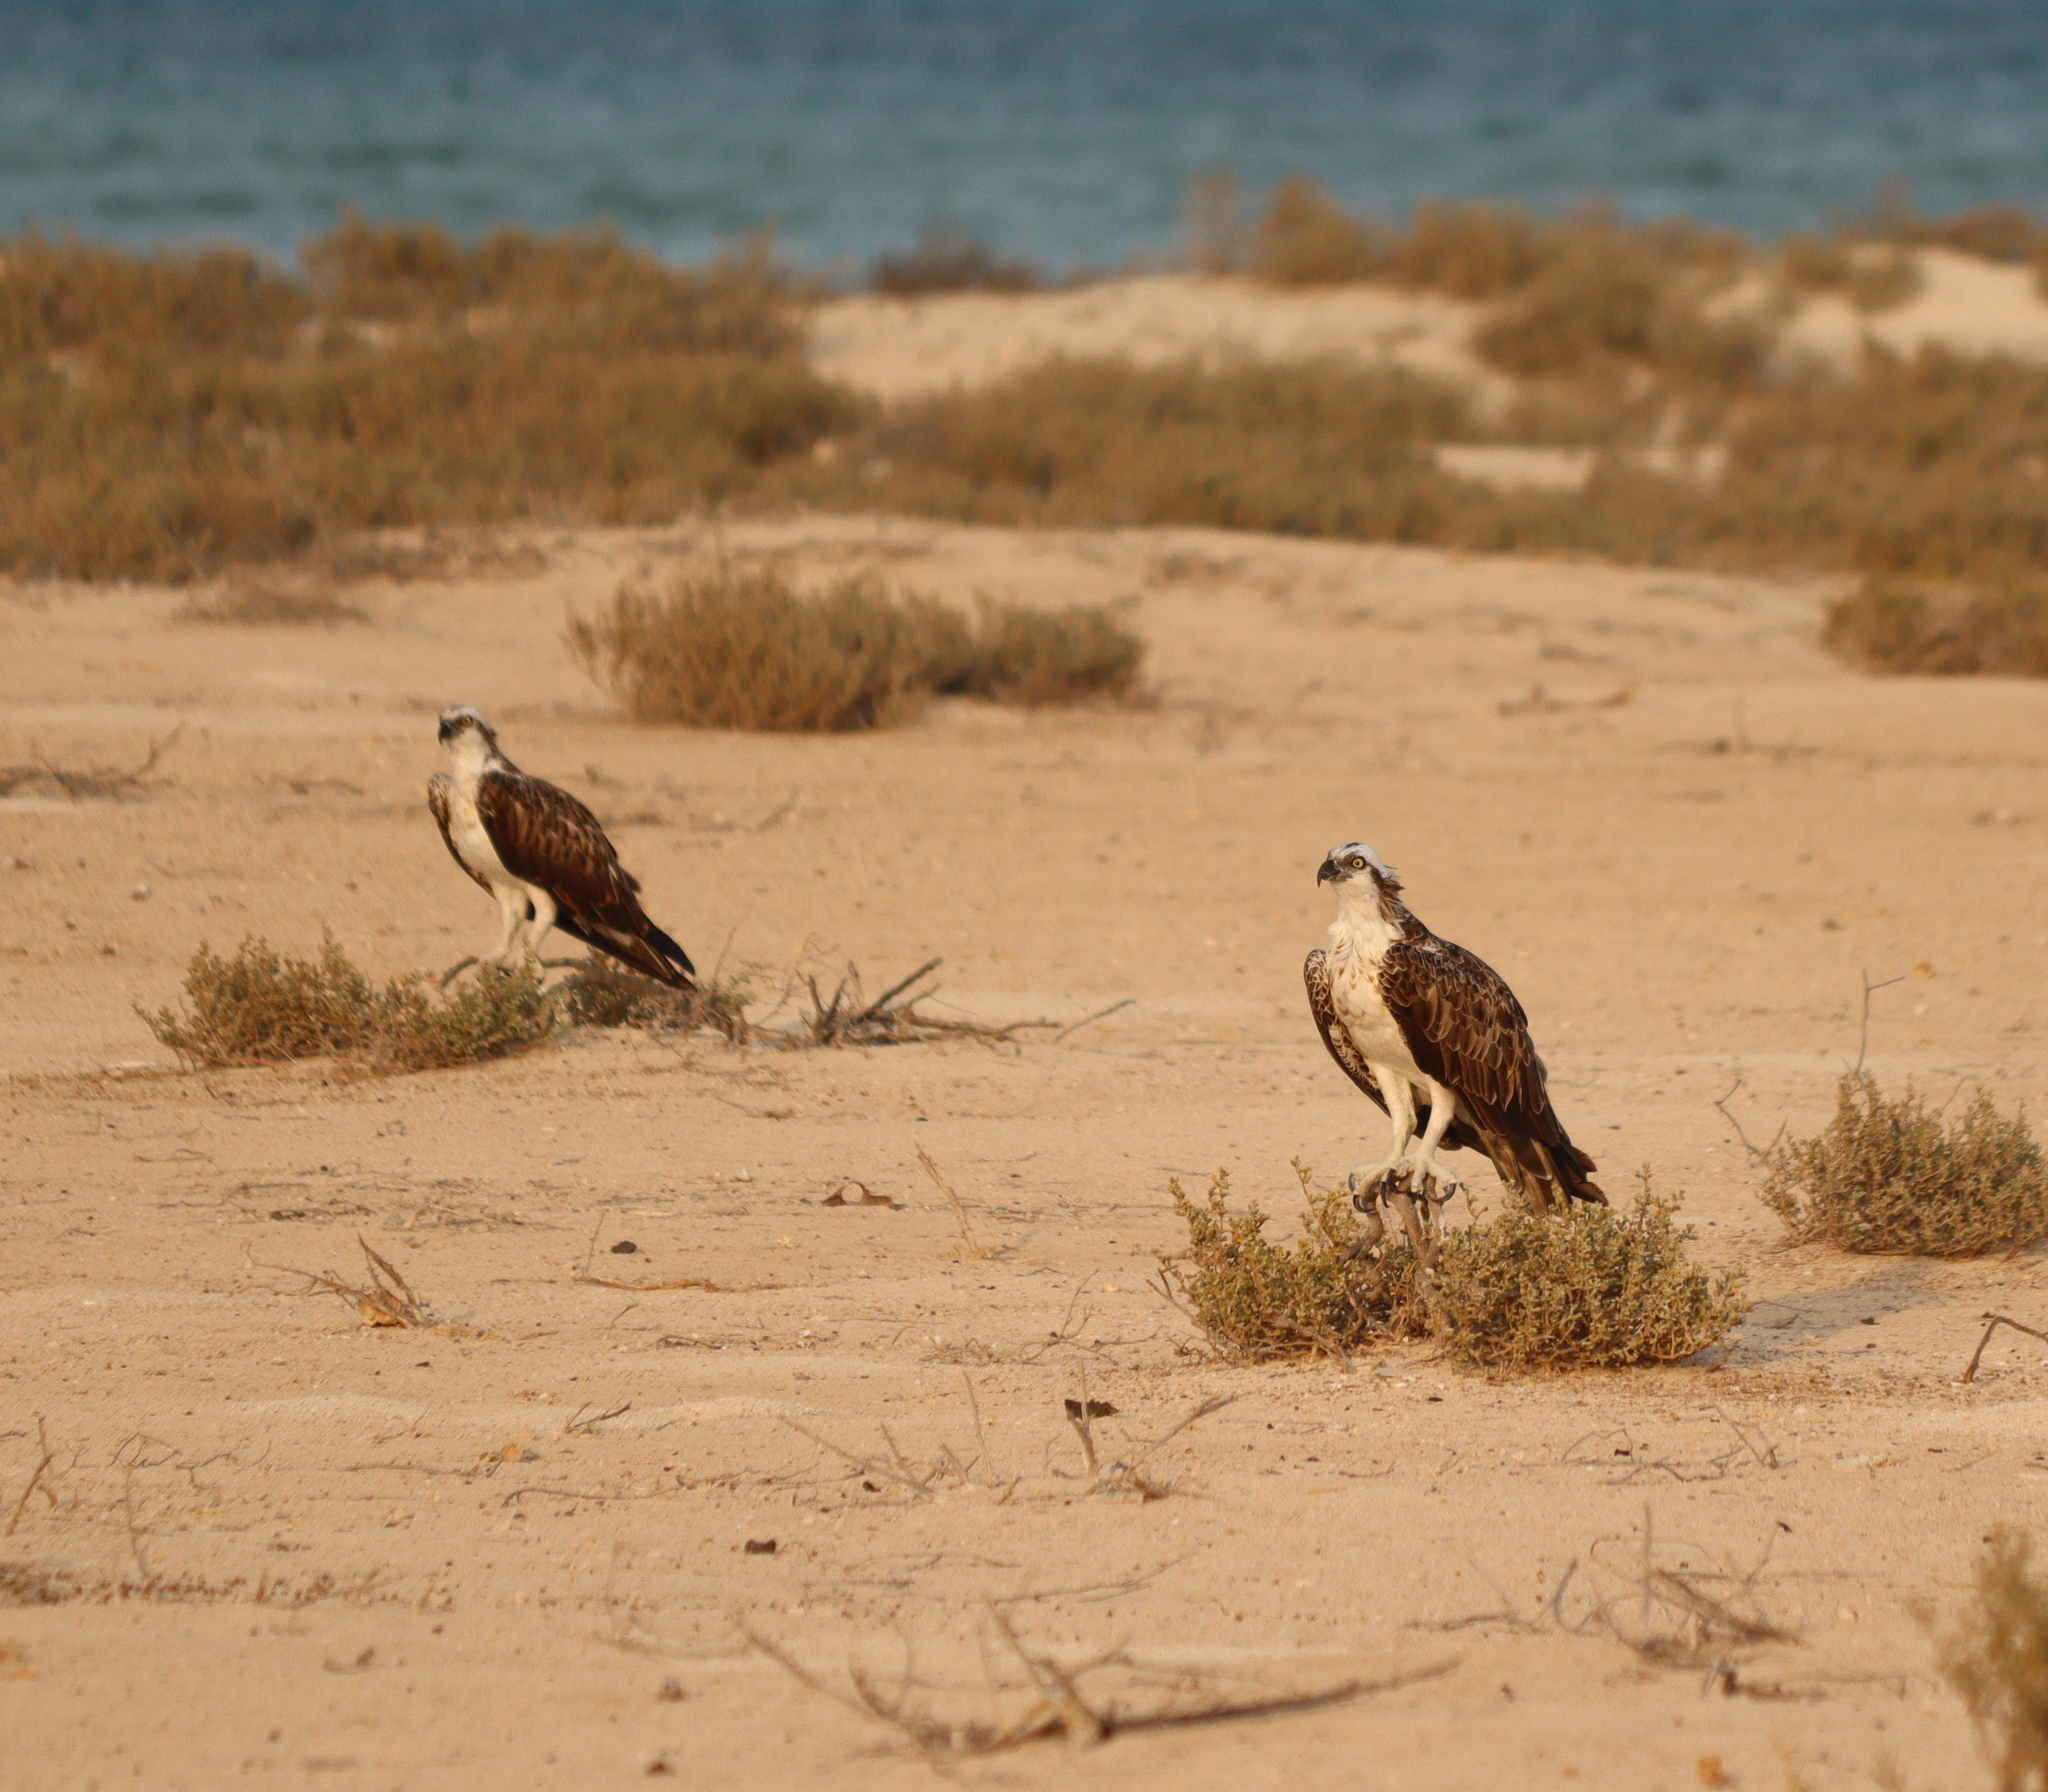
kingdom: Animalia
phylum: Chordata
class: Aves
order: Accipitriformes
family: Pandionidae
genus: Pandion
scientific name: Pandion haliaetus
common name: Osprey
